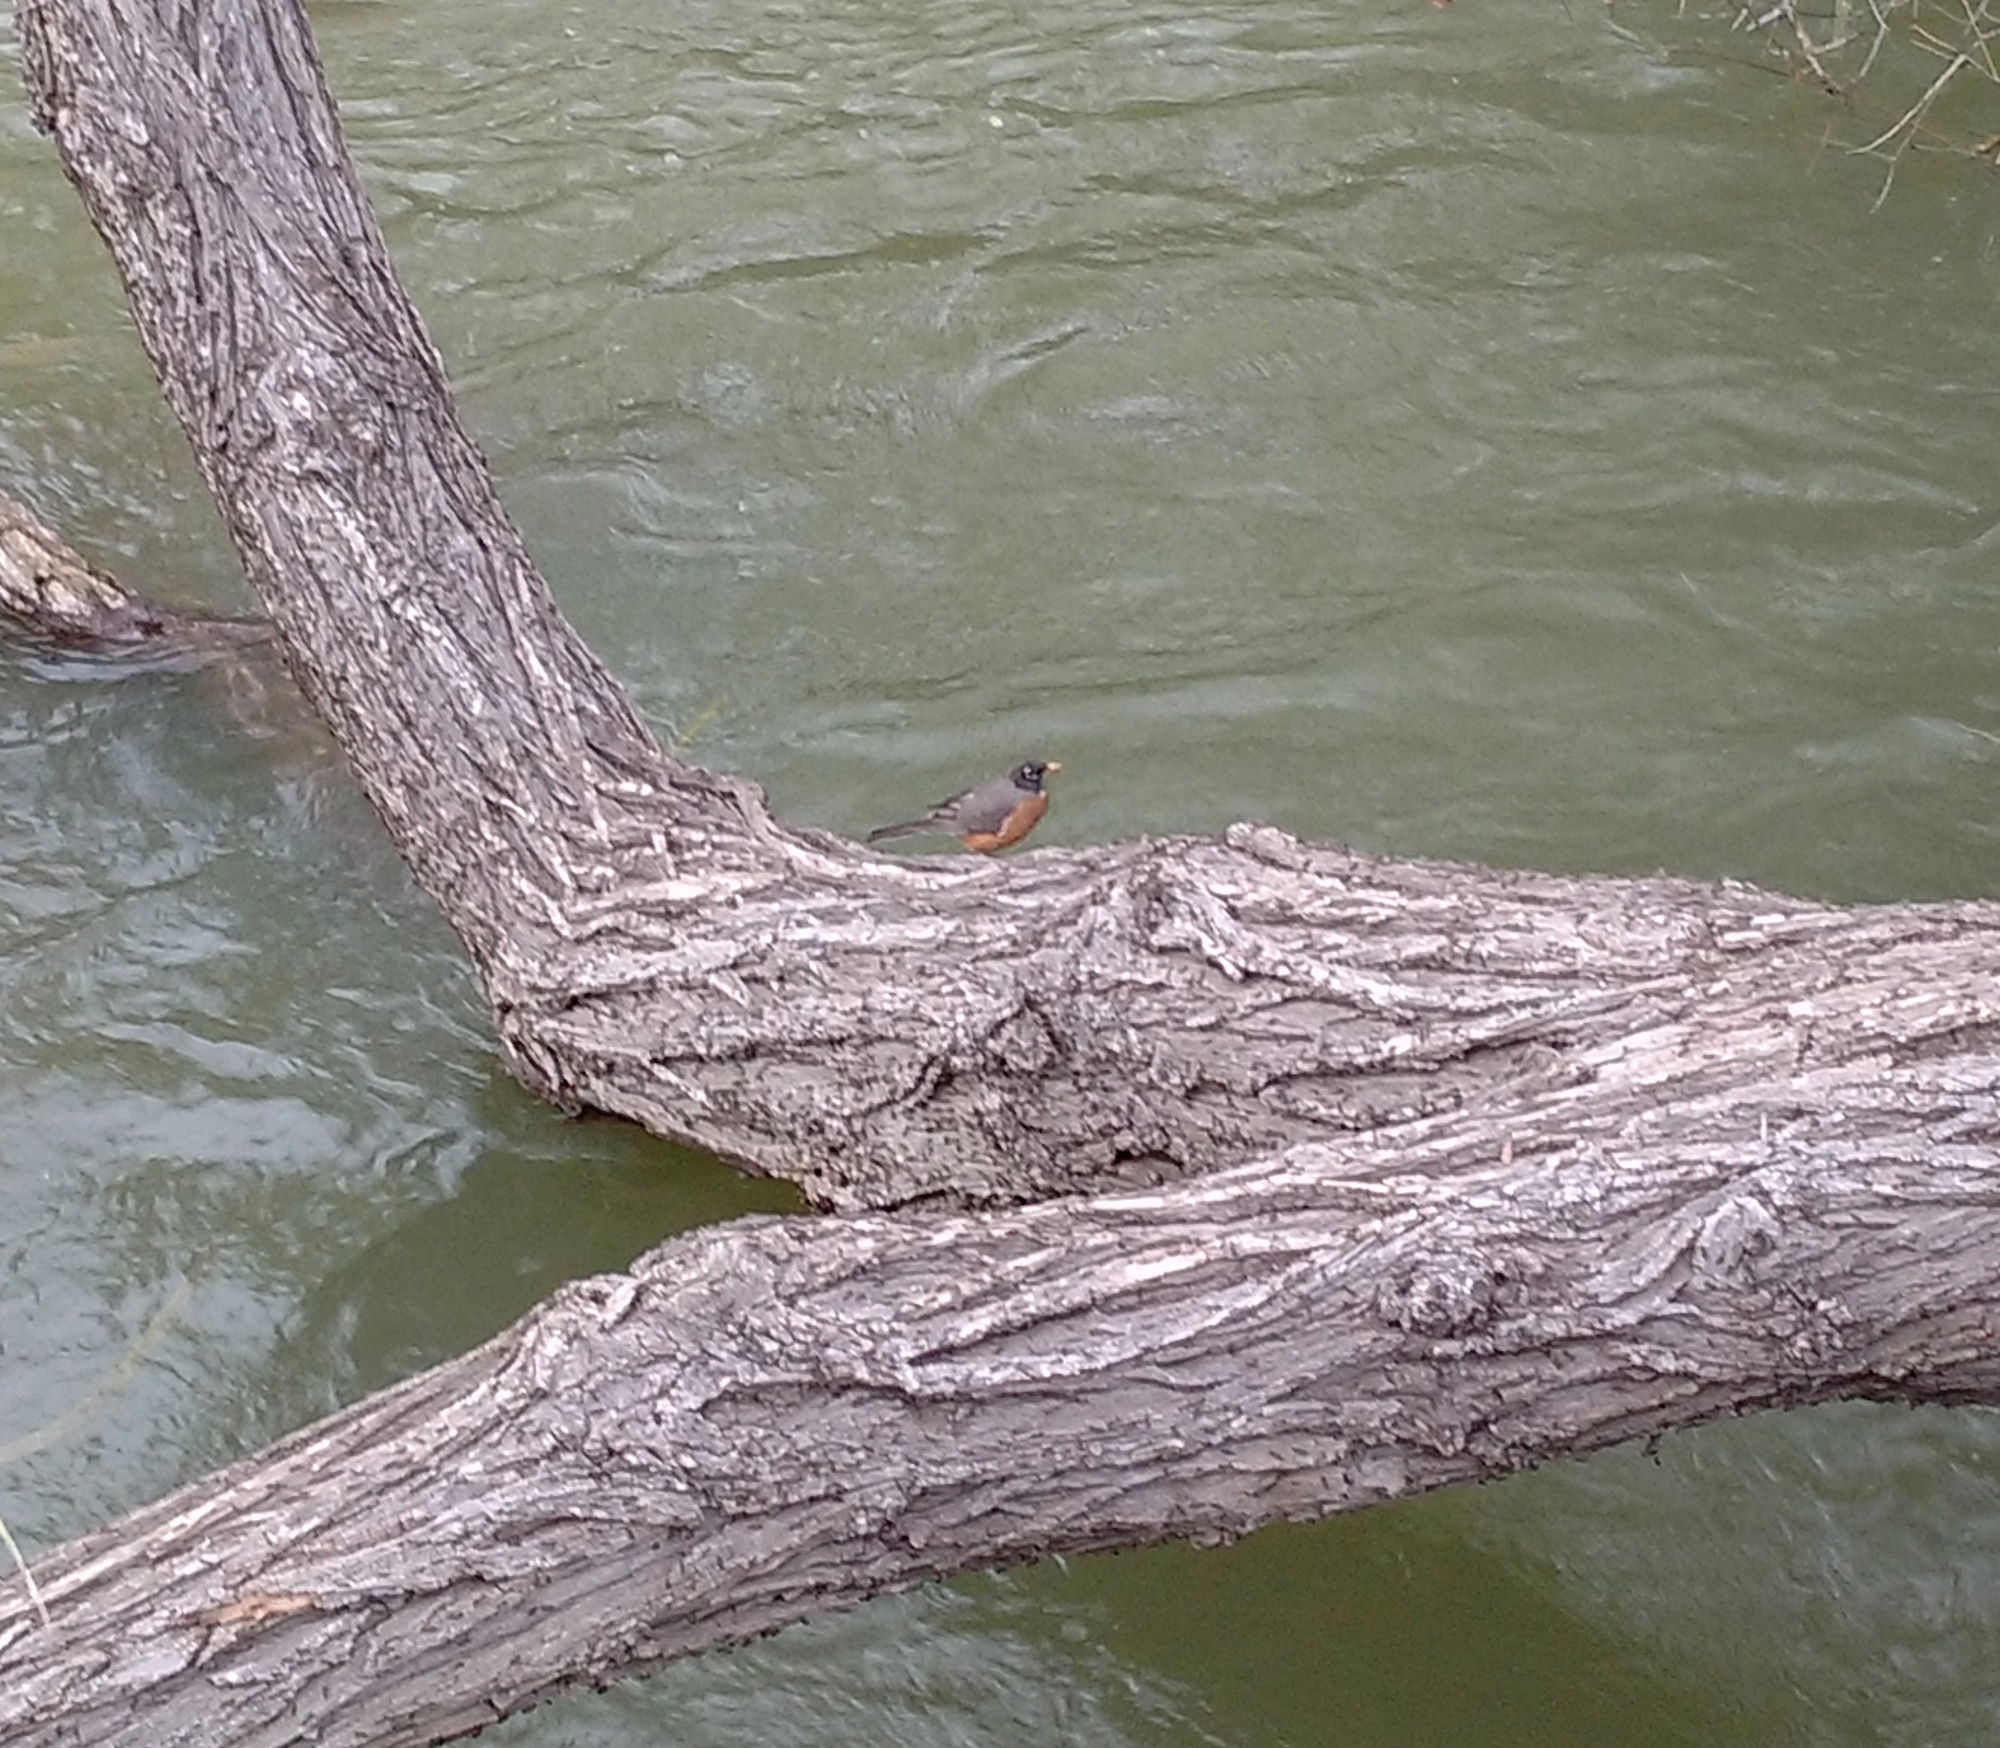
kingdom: Animalia
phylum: Chordata
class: Aves
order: Passeriformes
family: Turdidae
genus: Turdus
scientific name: Turdus migratorius
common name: American robin
